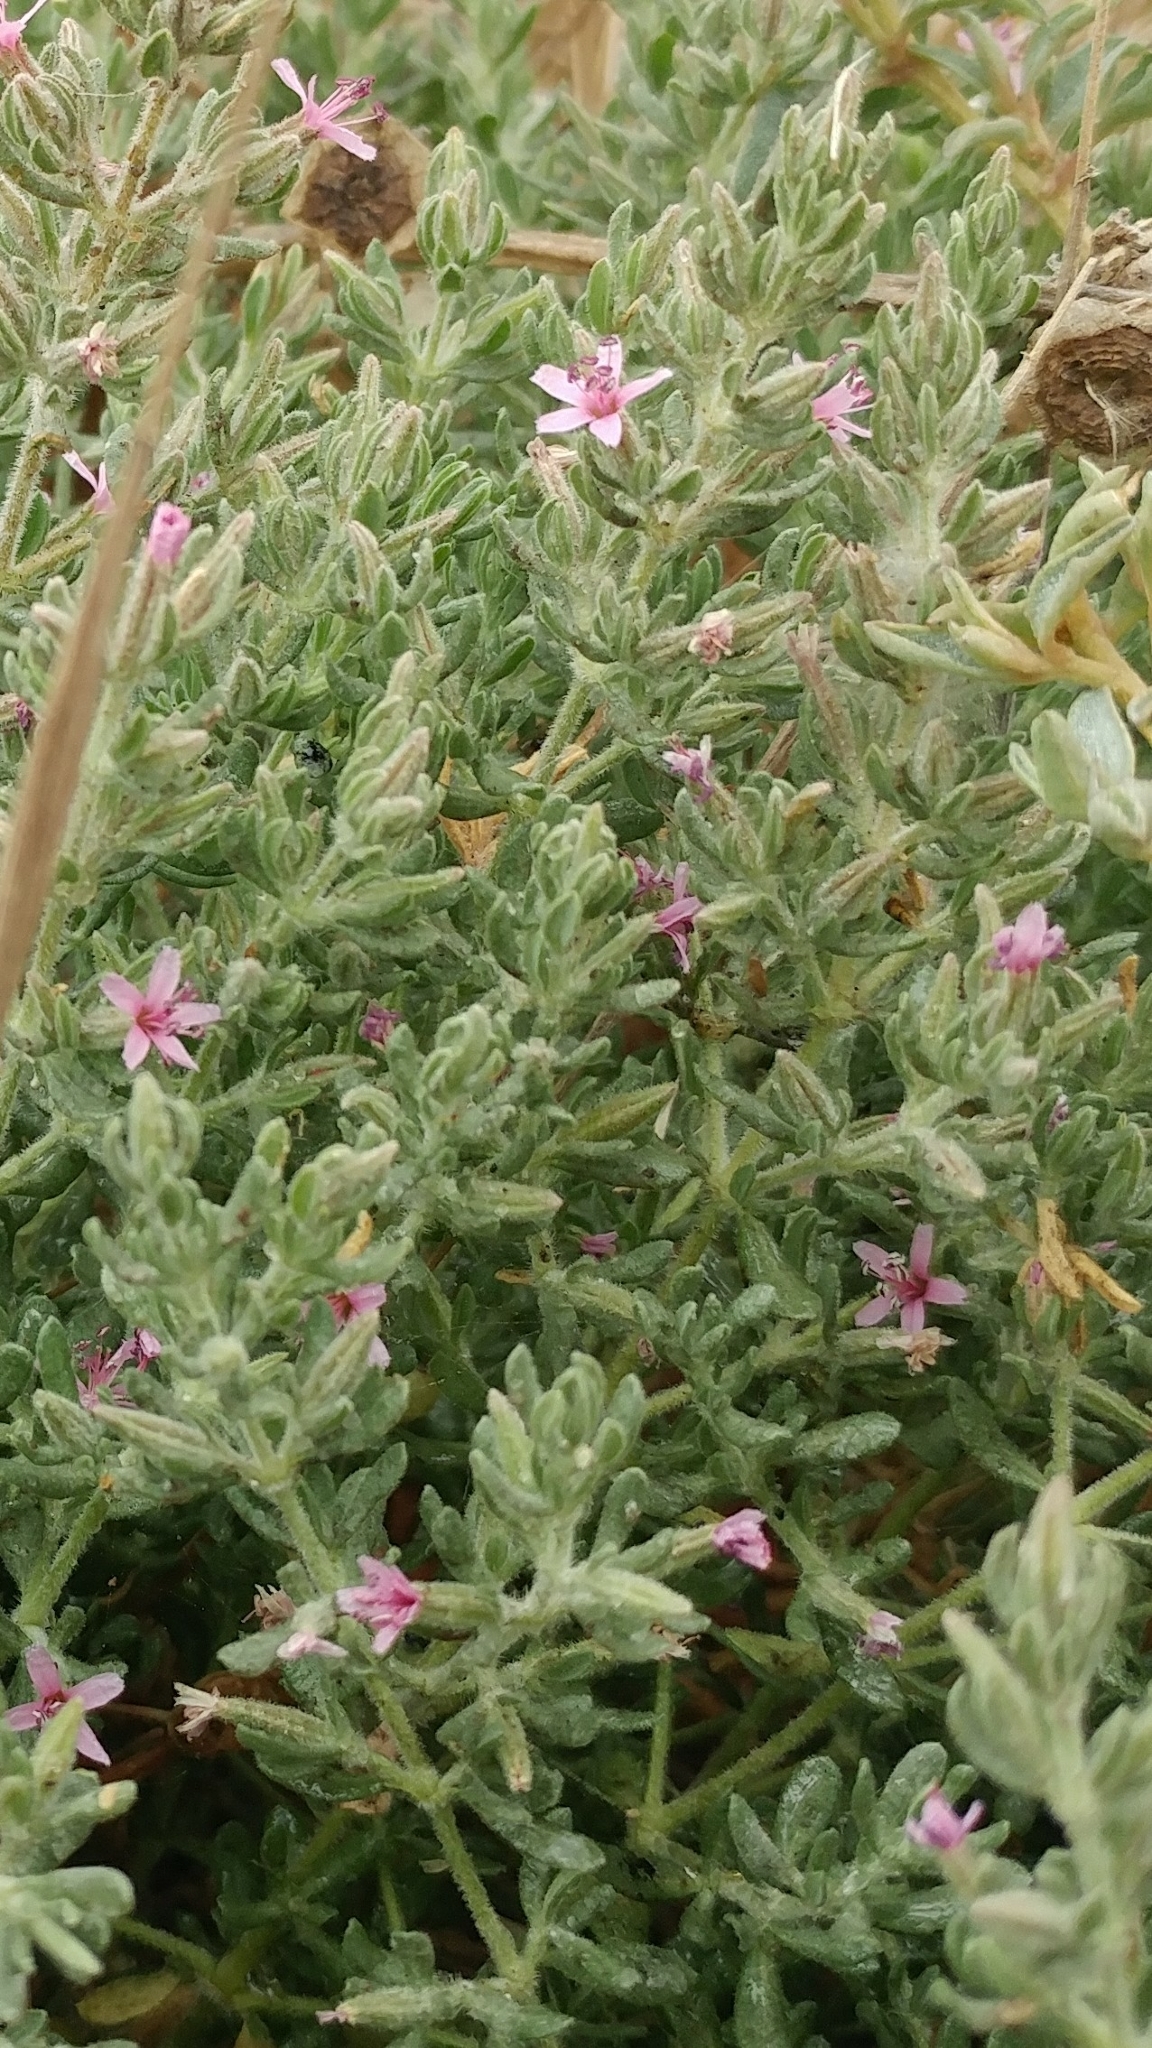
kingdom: Plantae
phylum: Tracheophyta
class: Magnoliopsida
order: Caryophyllales
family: Frankeniaceae
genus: Frankenia
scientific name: Frankenia salina
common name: Alkali seaheath
